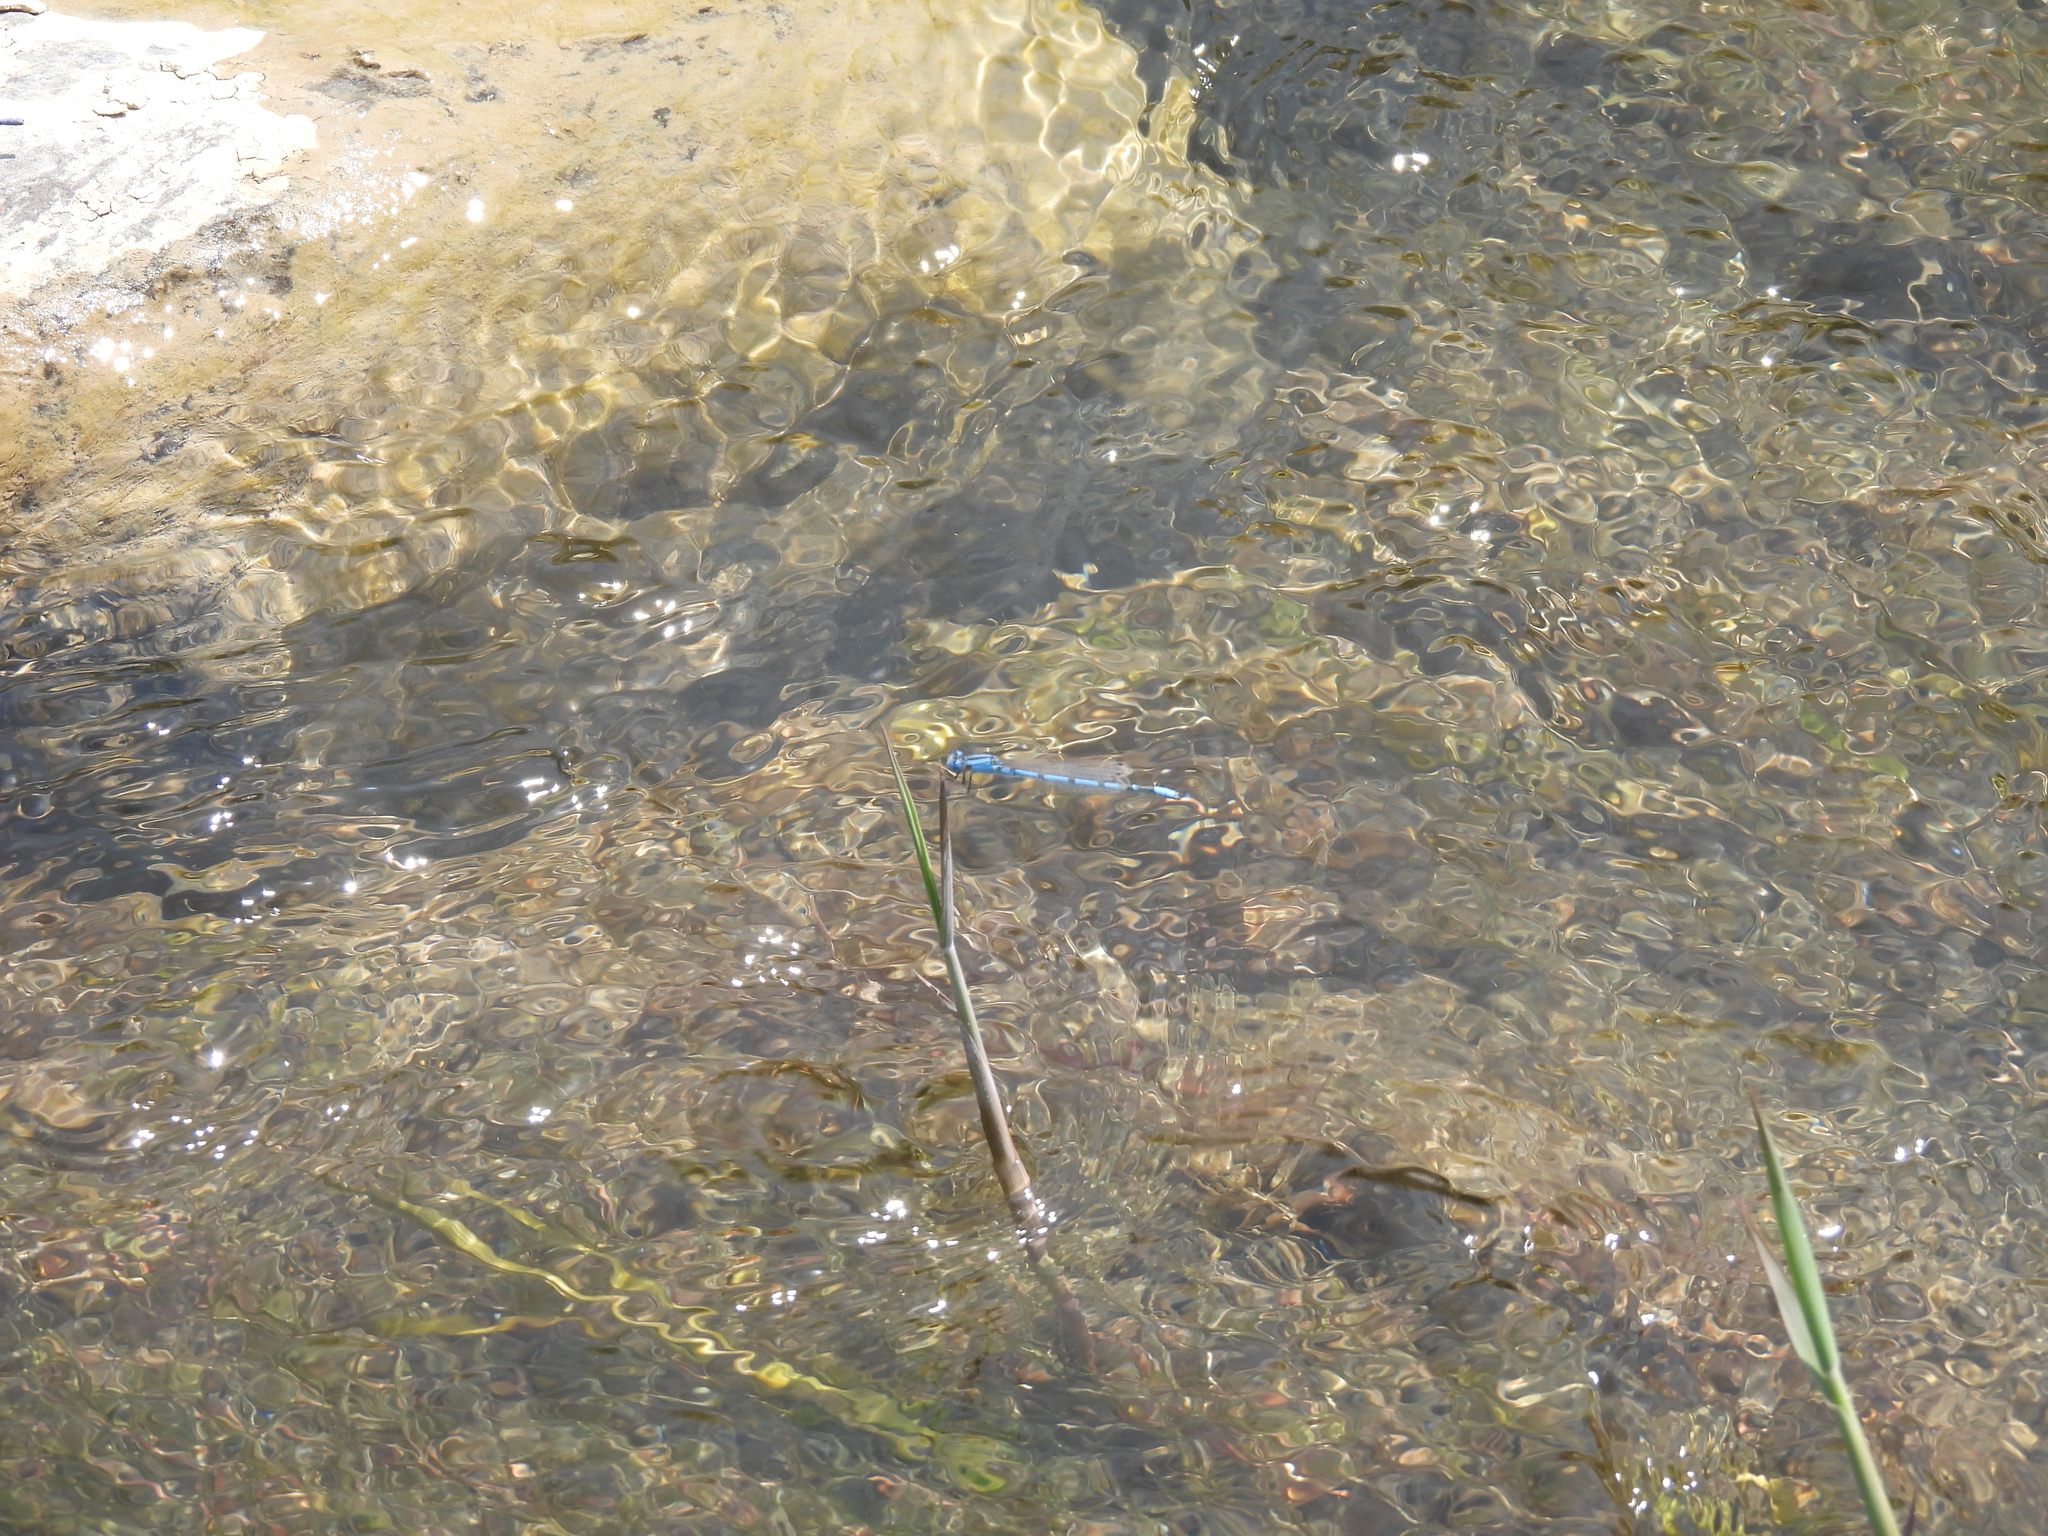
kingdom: Animalia
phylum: Arthropoda
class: Insecta
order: Odonata
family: Coenagrionidae
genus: Enallagma
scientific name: Enallagma civile
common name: Damselfly
